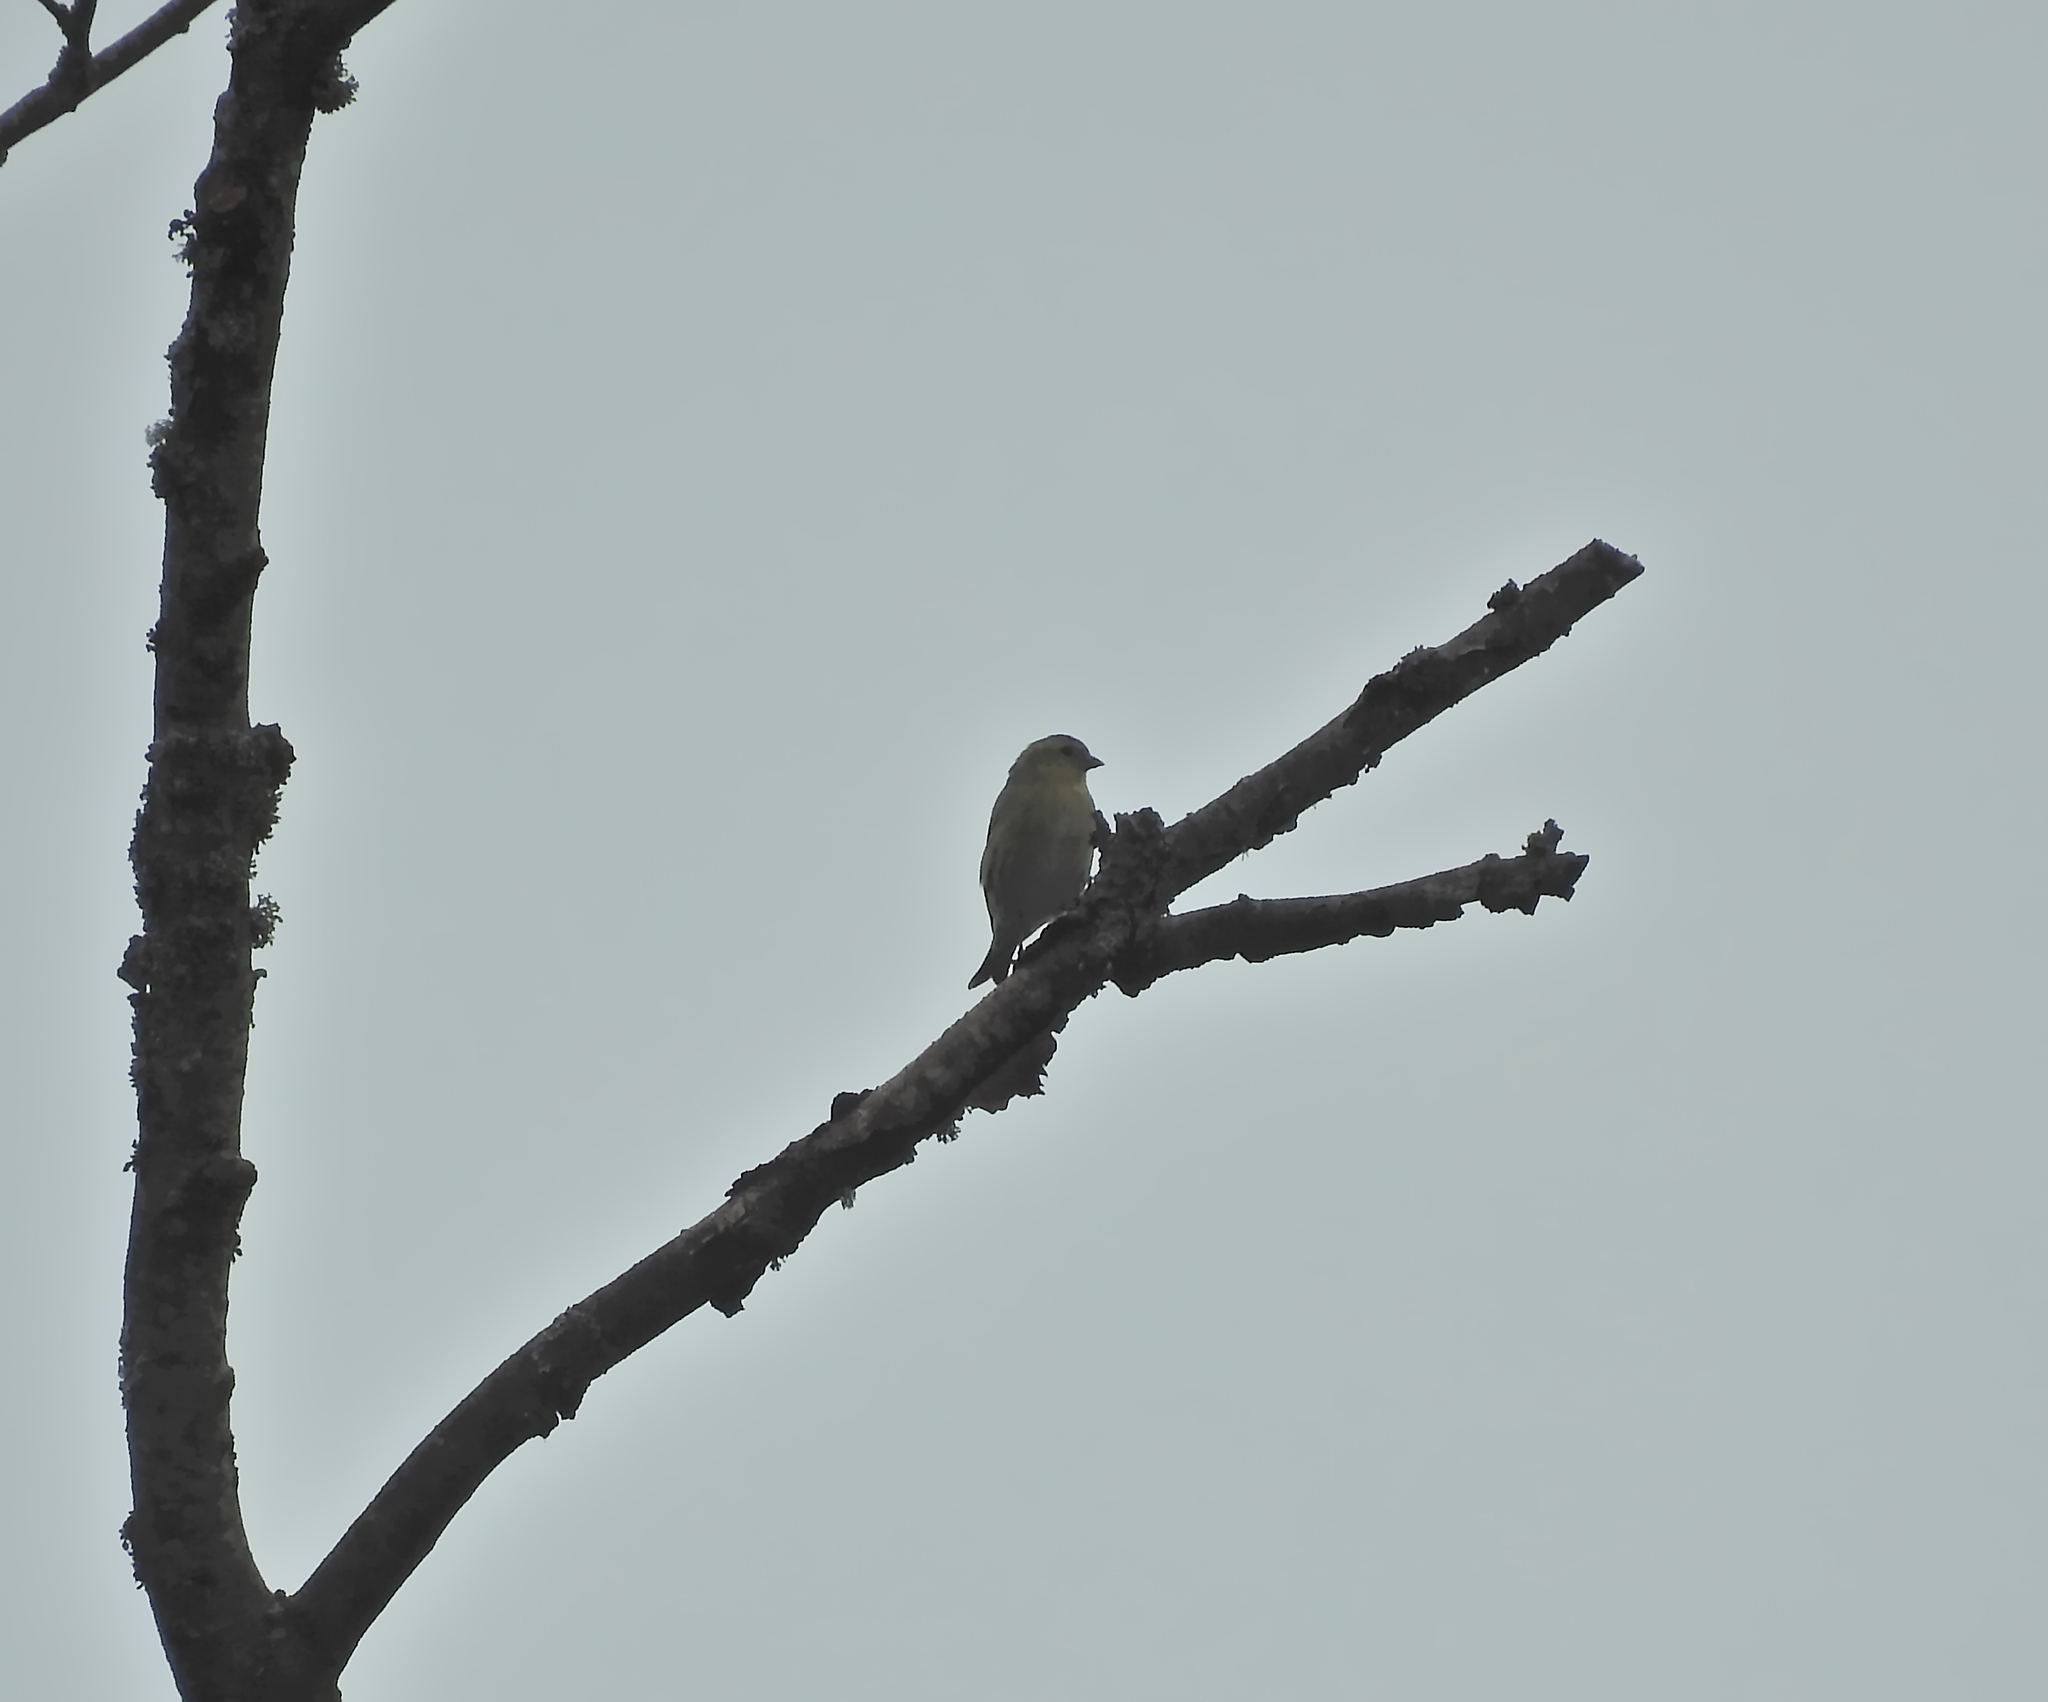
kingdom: Animalia
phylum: Chordata
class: Aves
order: Passeriformes
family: Fringillidae
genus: Spinus
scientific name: Spinus spinus
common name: Eurasian siskin
